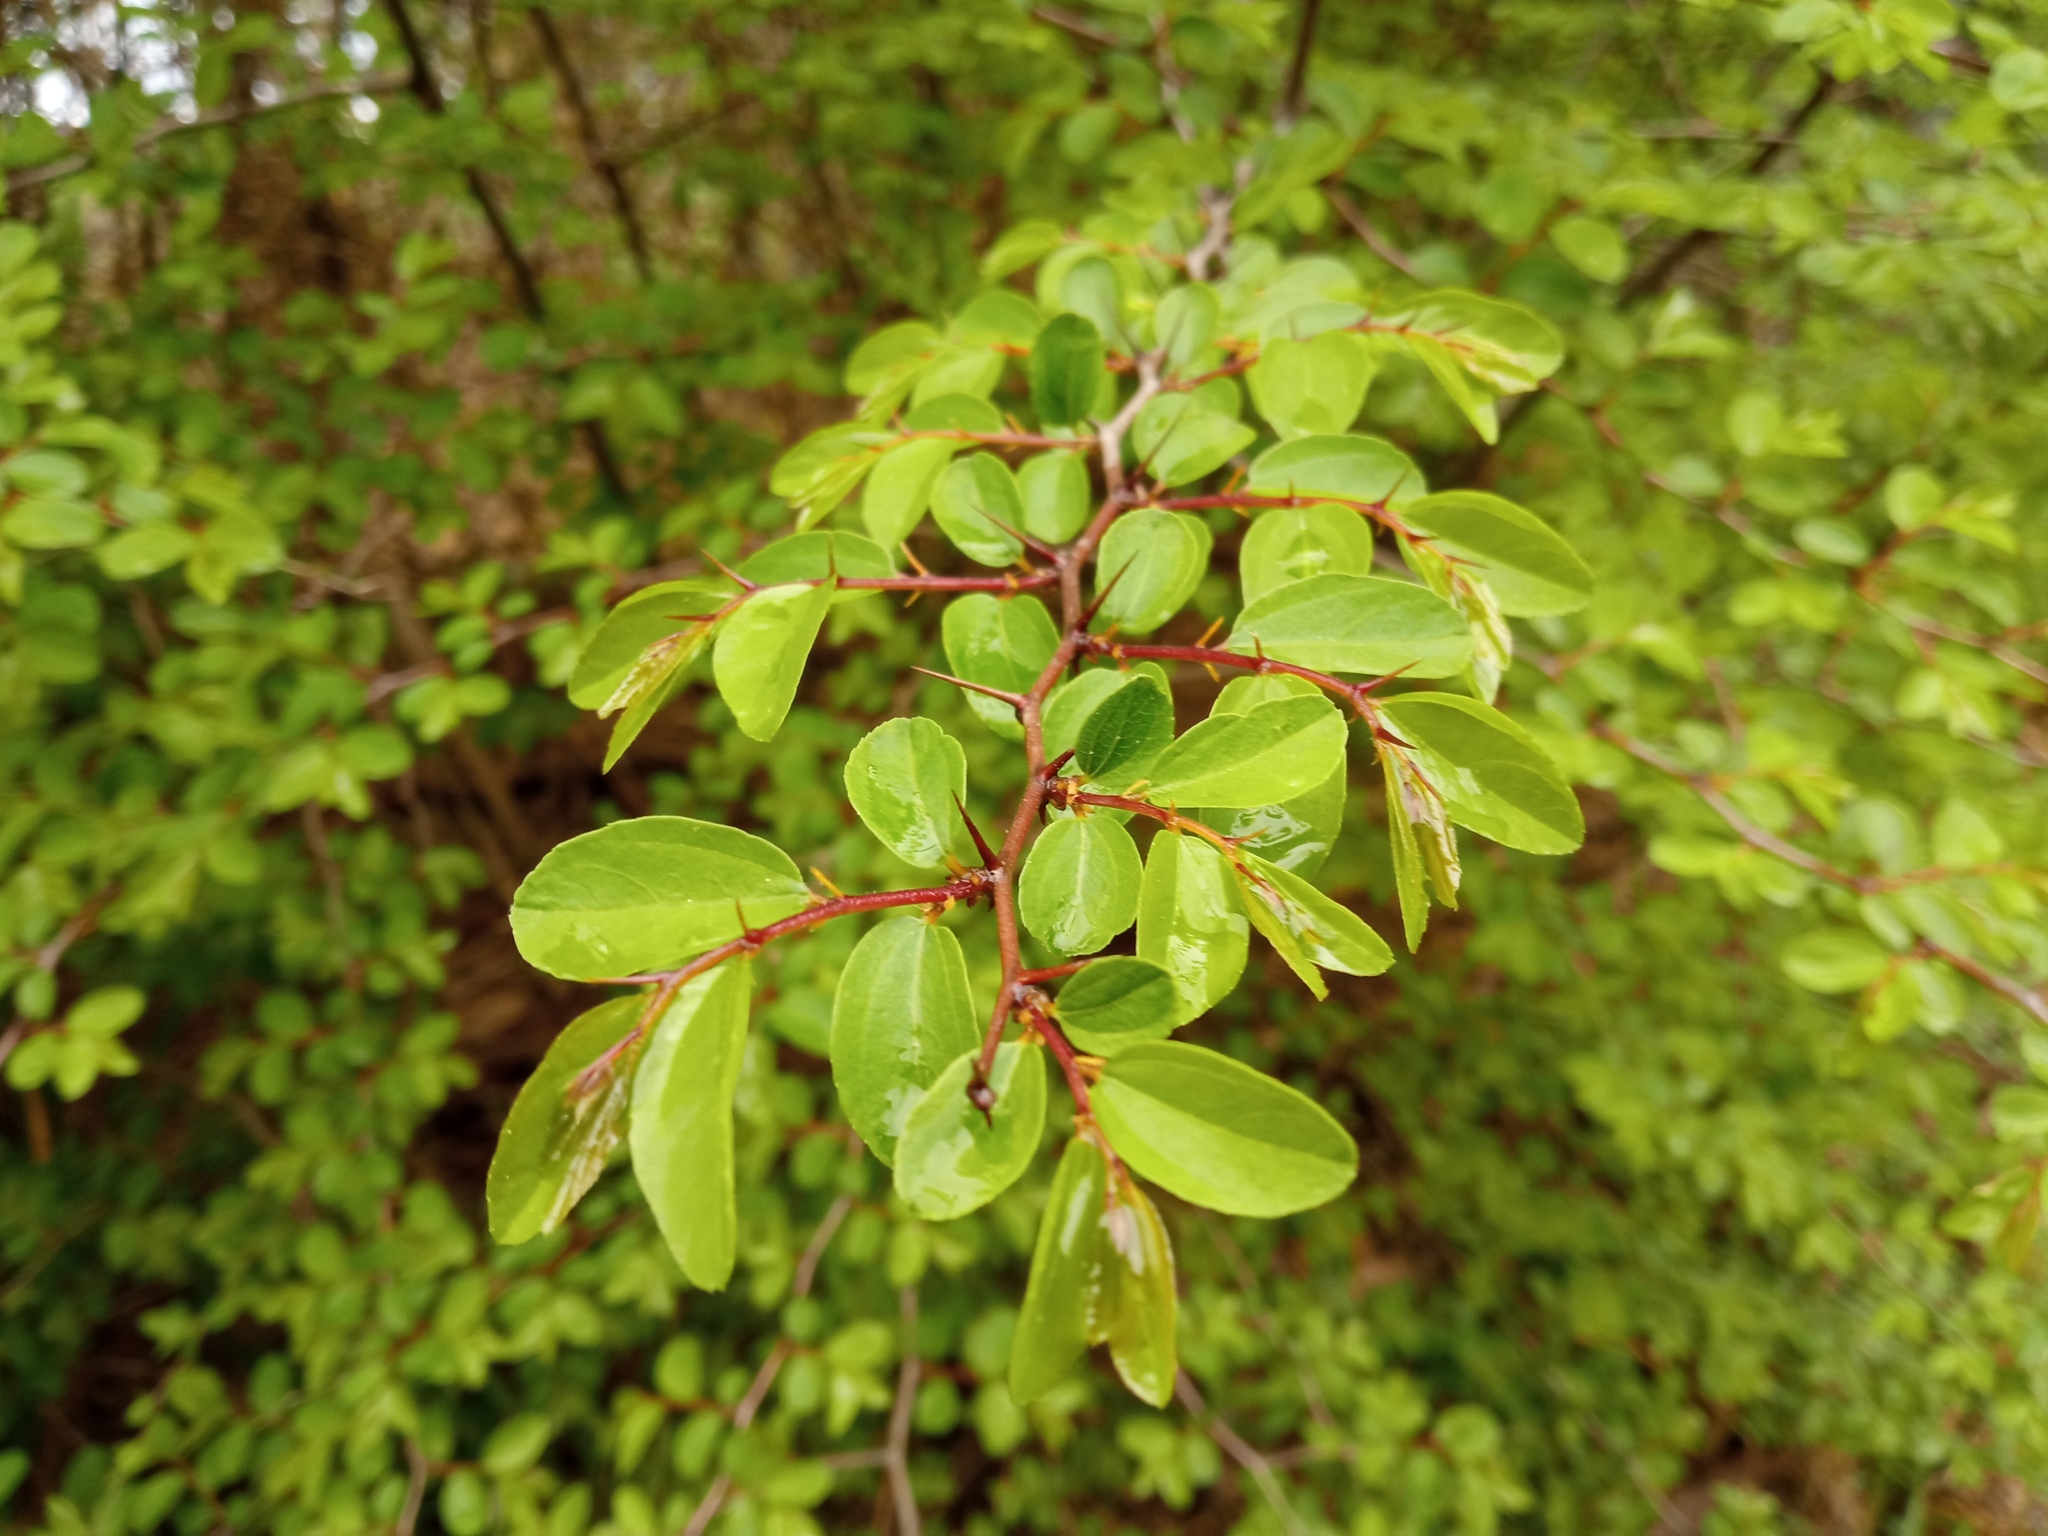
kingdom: Plantae
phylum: Tracheophyta
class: Magnoliopsida
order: Rosales
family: Rhamnaceae
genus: Paliurus
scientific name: Paliurus spina-christi
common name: Jeruselem thorn
